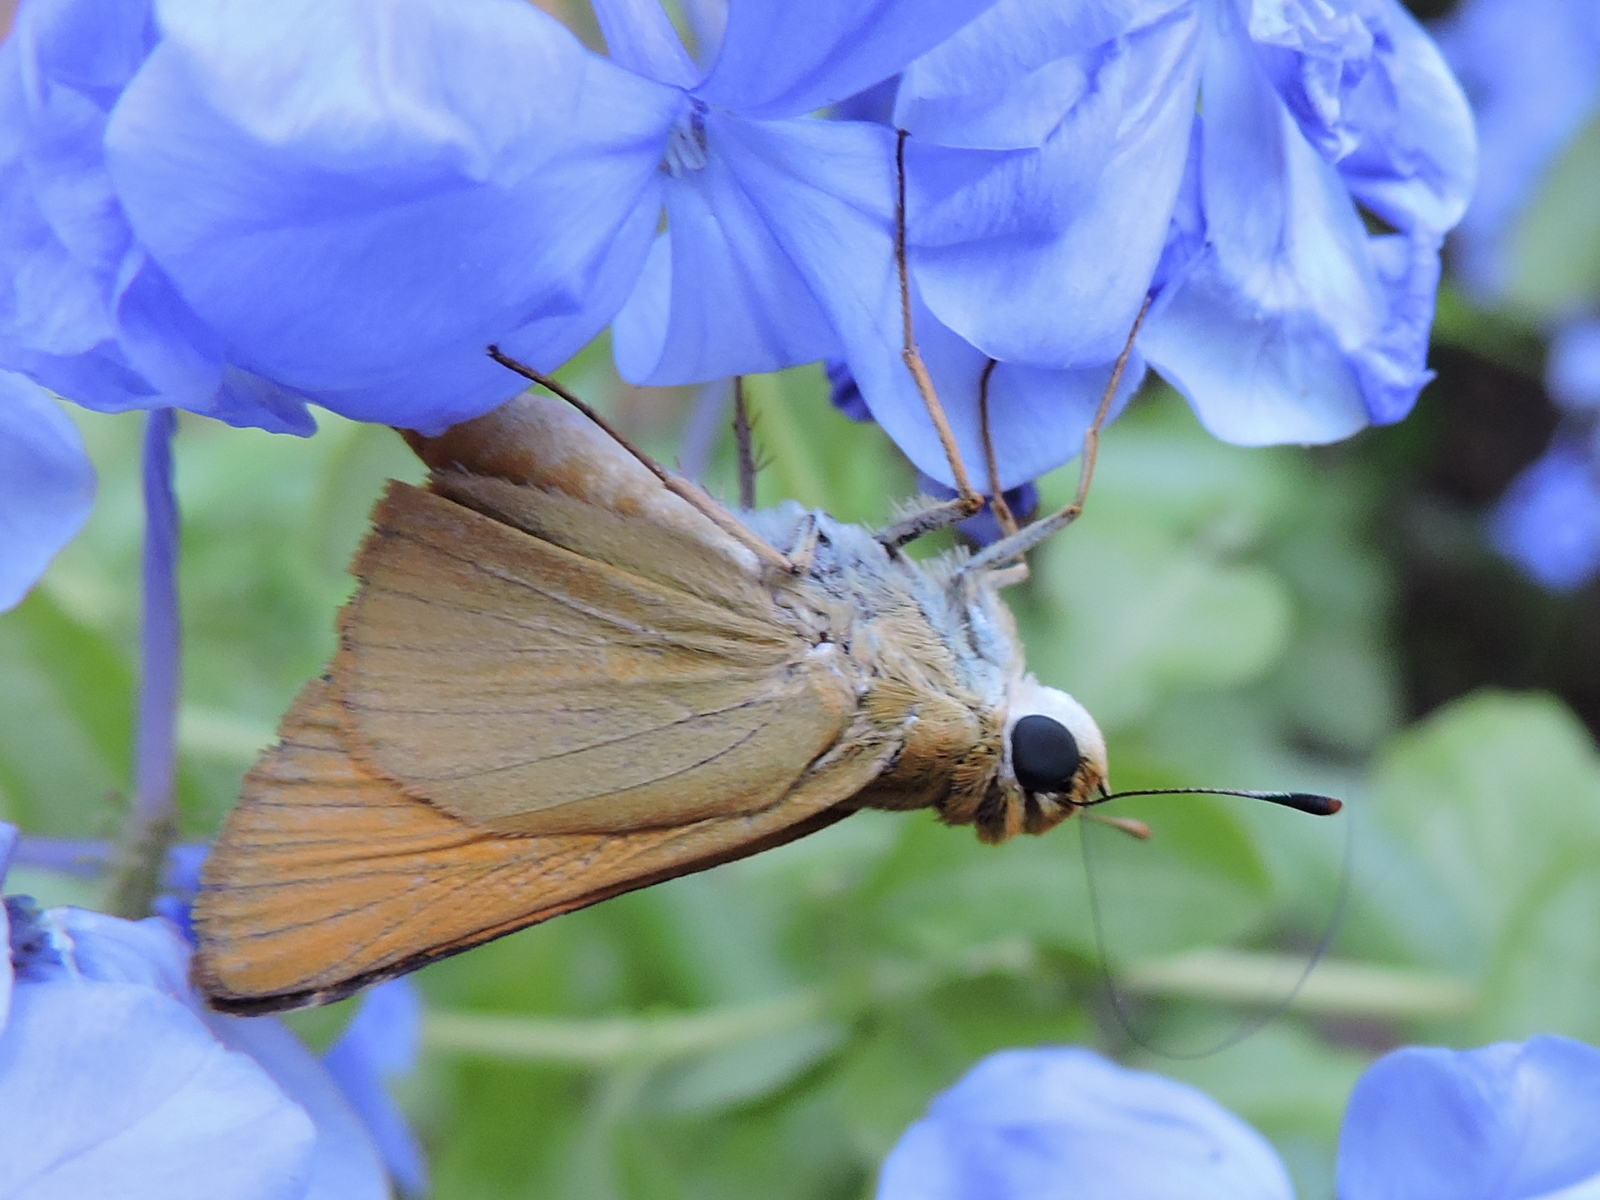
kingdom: Animalia
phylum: Arthropoda
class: Insecta
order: Lepidoptera
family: Hesperiidae
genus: Atrytone
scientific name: Atrytone delaware
